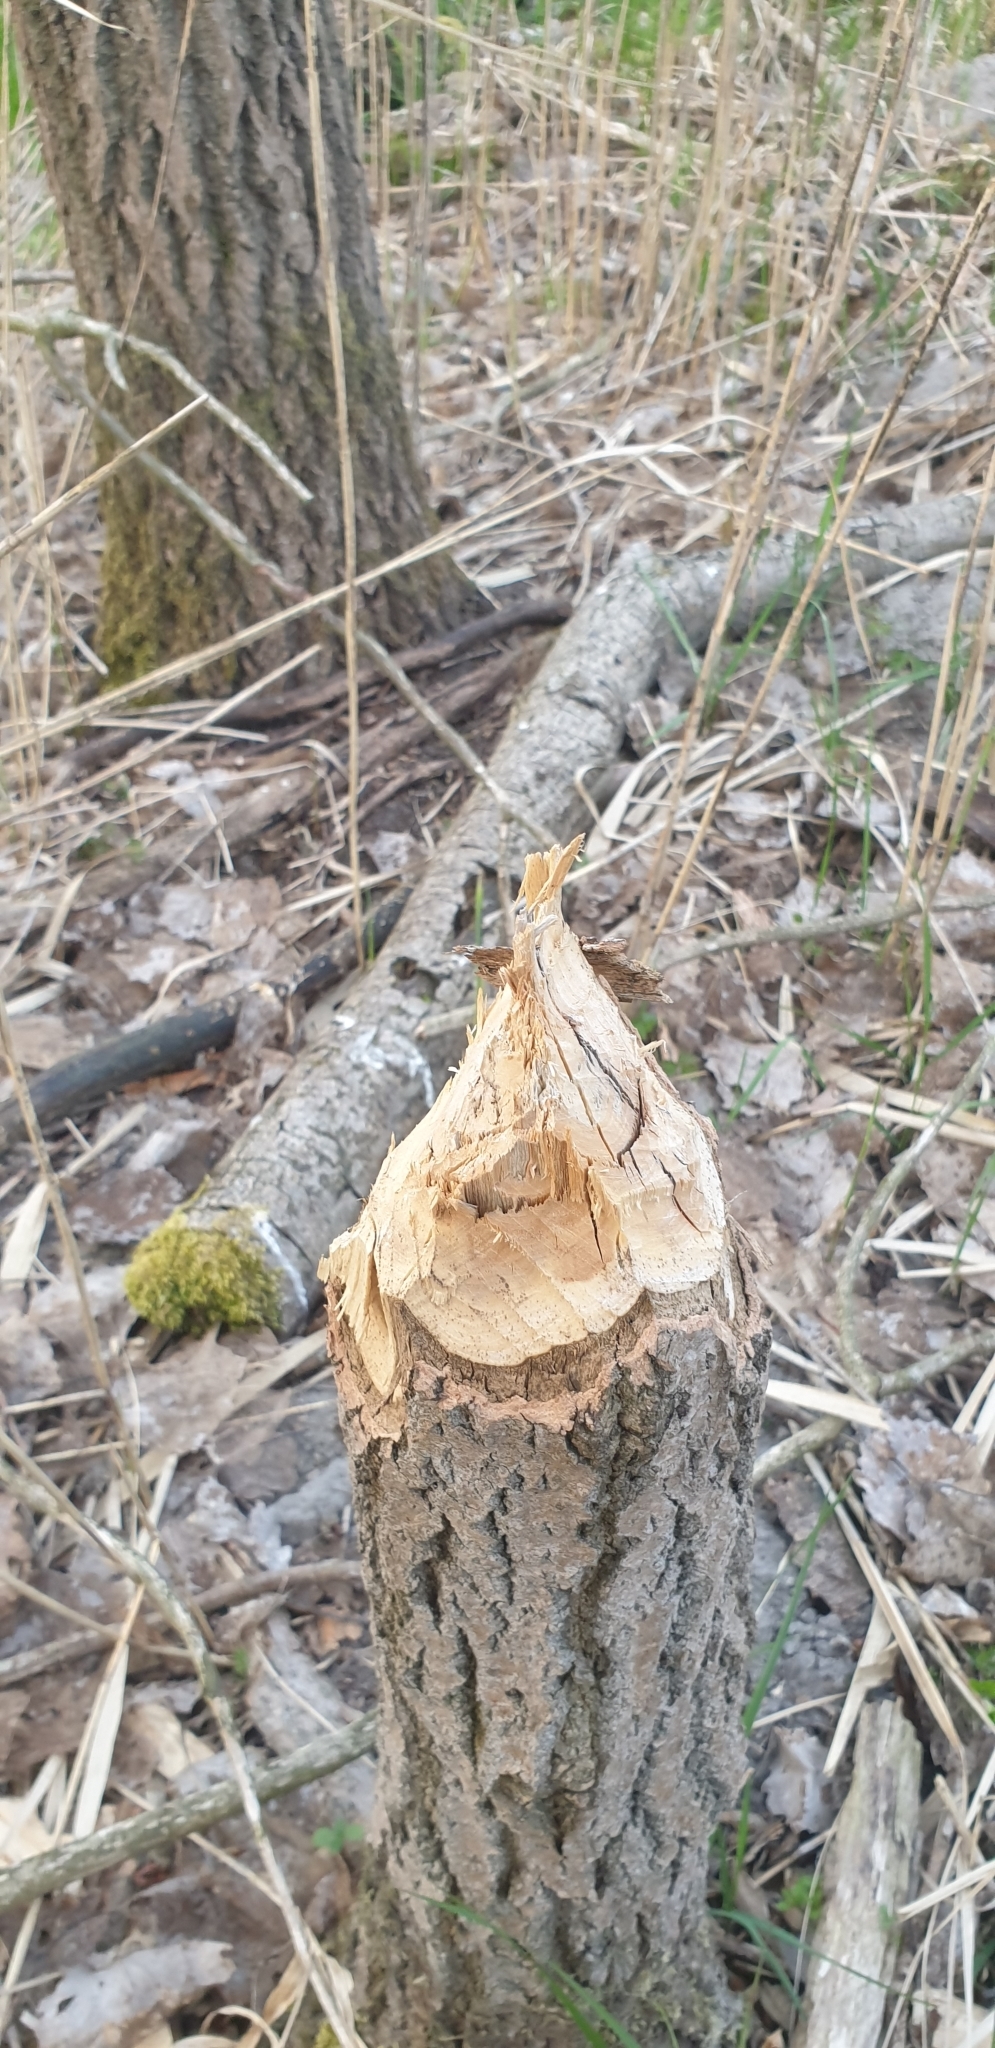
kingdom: Animalia
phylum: Chordata
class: Mammalia
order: Rodentia
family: Castoridae
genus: Castor
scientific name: Castor fiber
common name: Eurasian beaver
